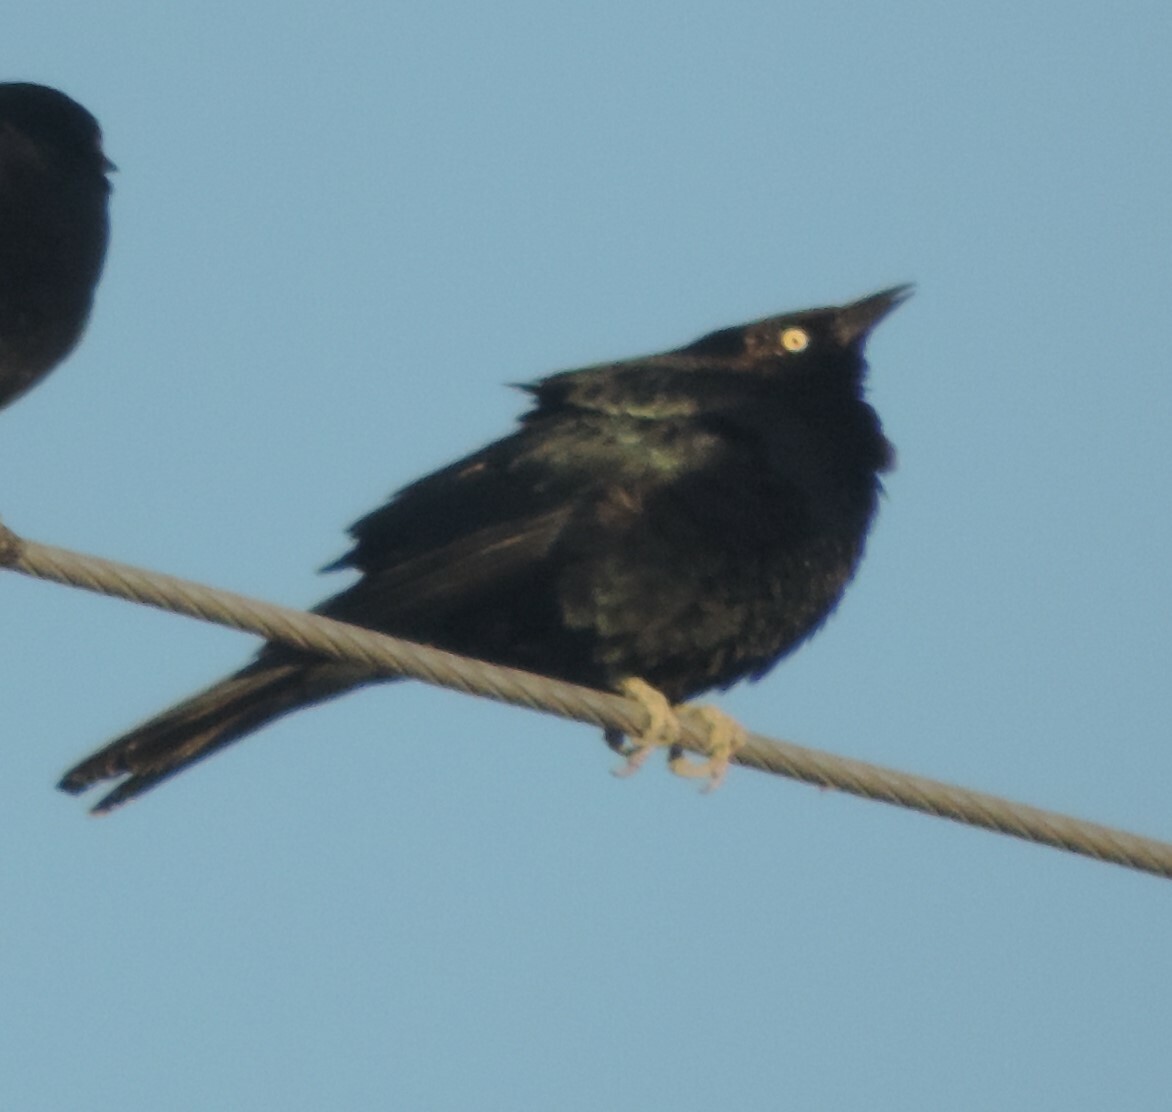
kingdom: Animalia
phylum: Chordata
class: Aves
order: Passeriformes
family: Icteridae
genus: Euphagus
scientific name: Euphagus cyanocephalus
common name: Brewer's blackbird
